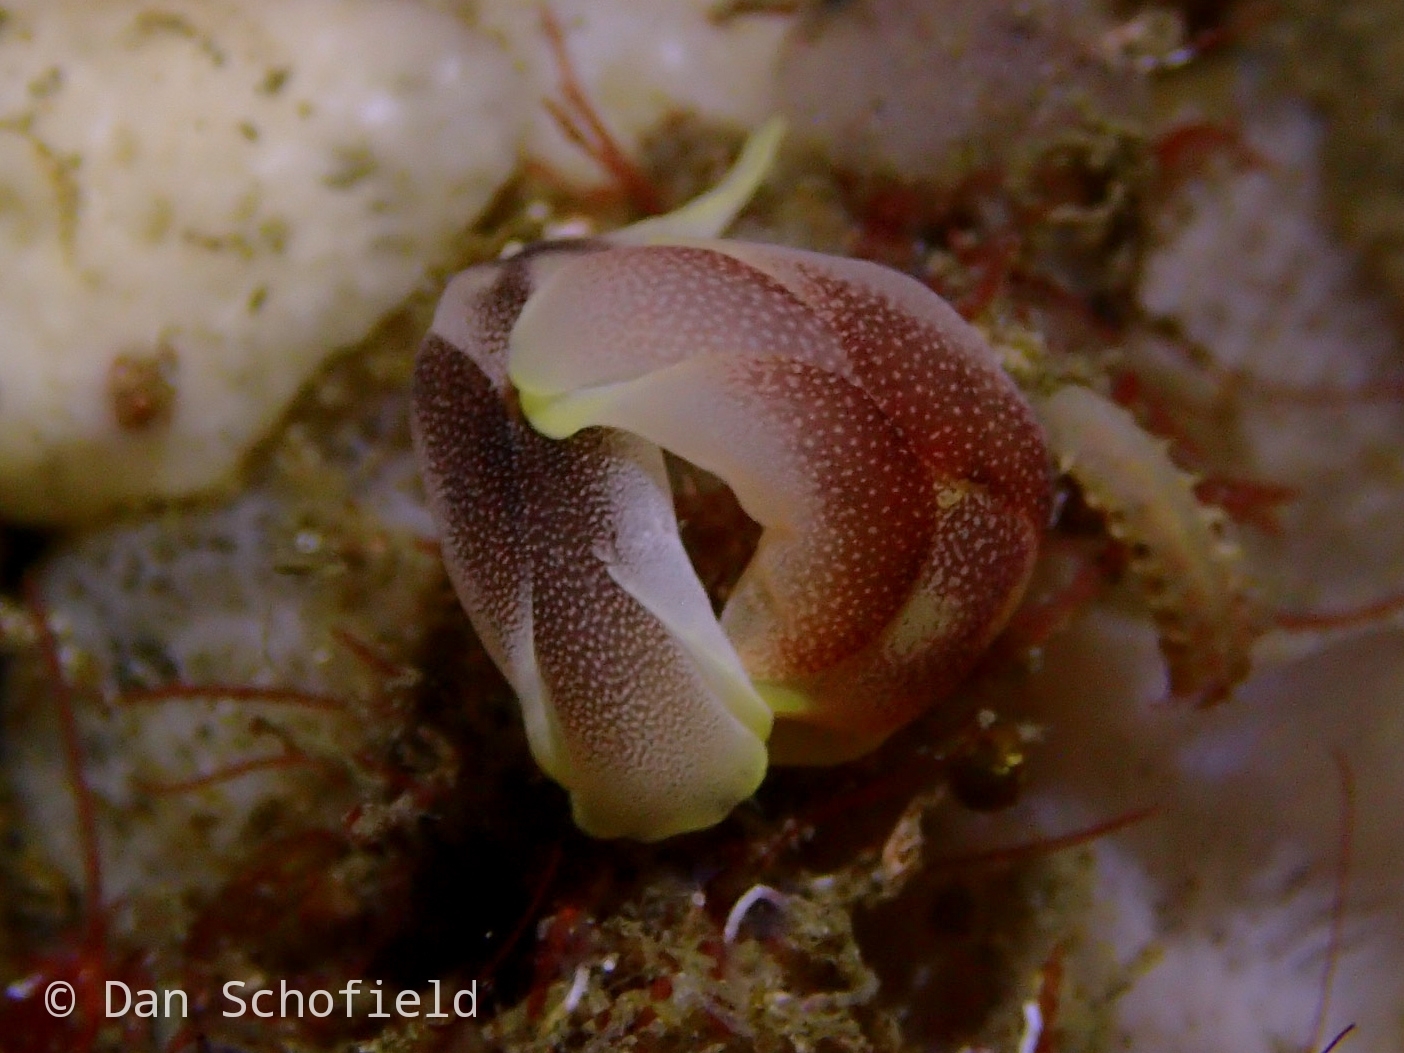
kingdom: Animalia
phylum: Mollusca
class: Gastropoda
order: Cephalaspidea
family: Aglajidae
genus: Chelidonura
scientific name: Chelidonura amoena
